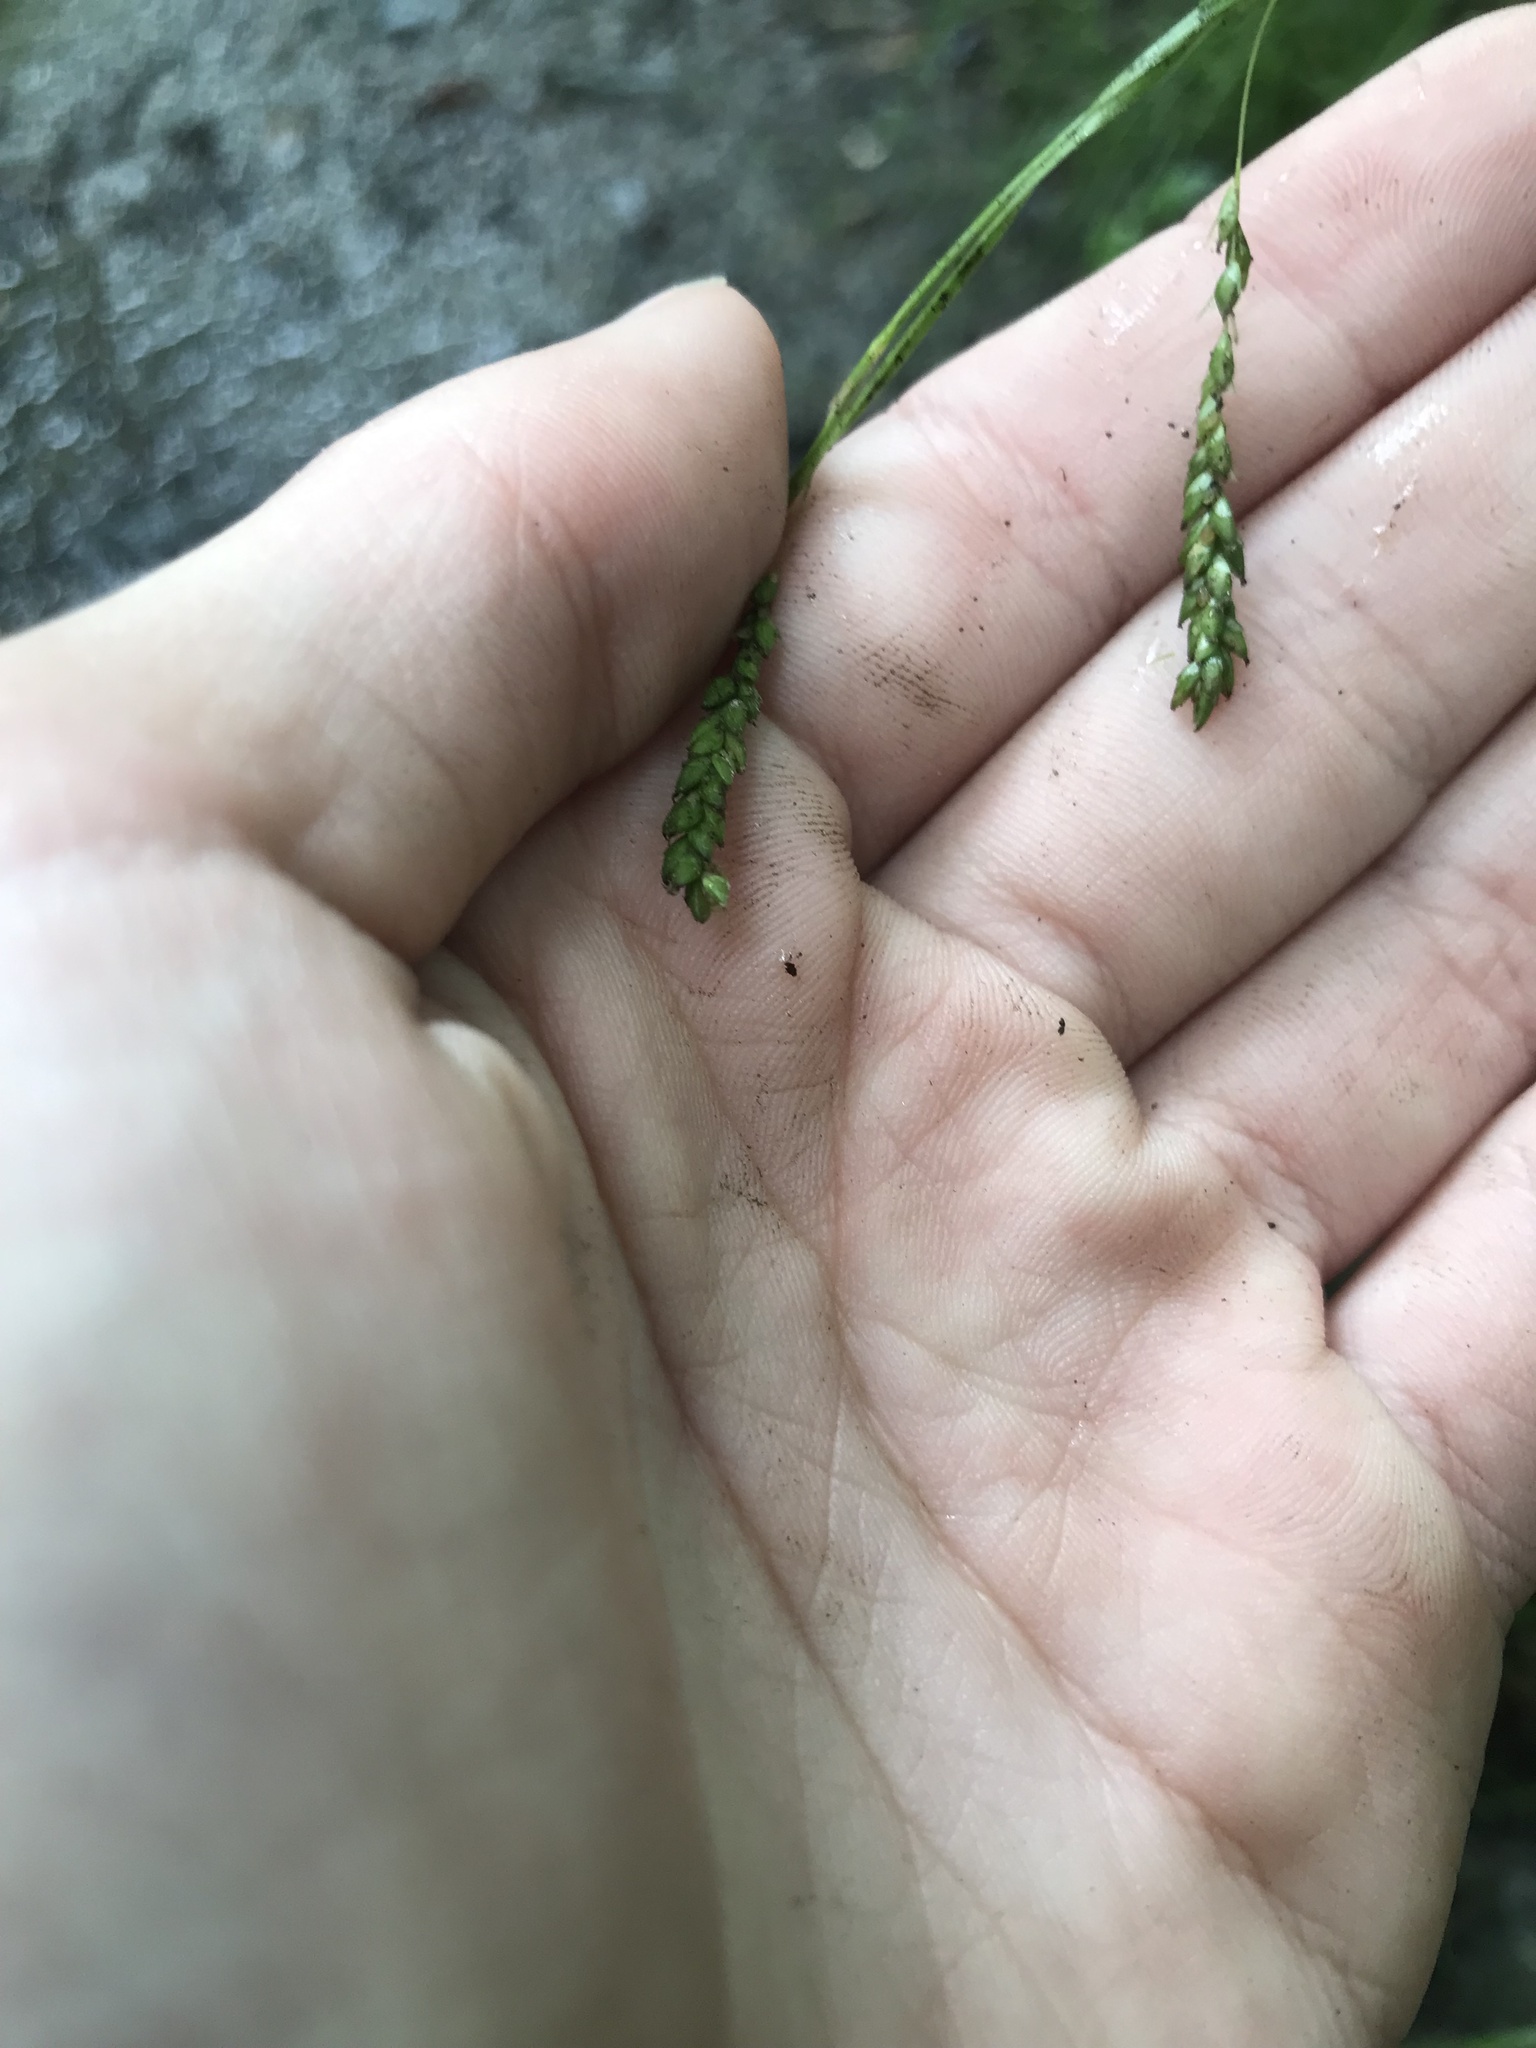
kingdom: Plantae
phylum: Tracheophyta
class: Liliopsida
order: Poales
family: Cyperaceae
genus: Carex
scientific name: Carex gracillima
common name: Graceful sedge
